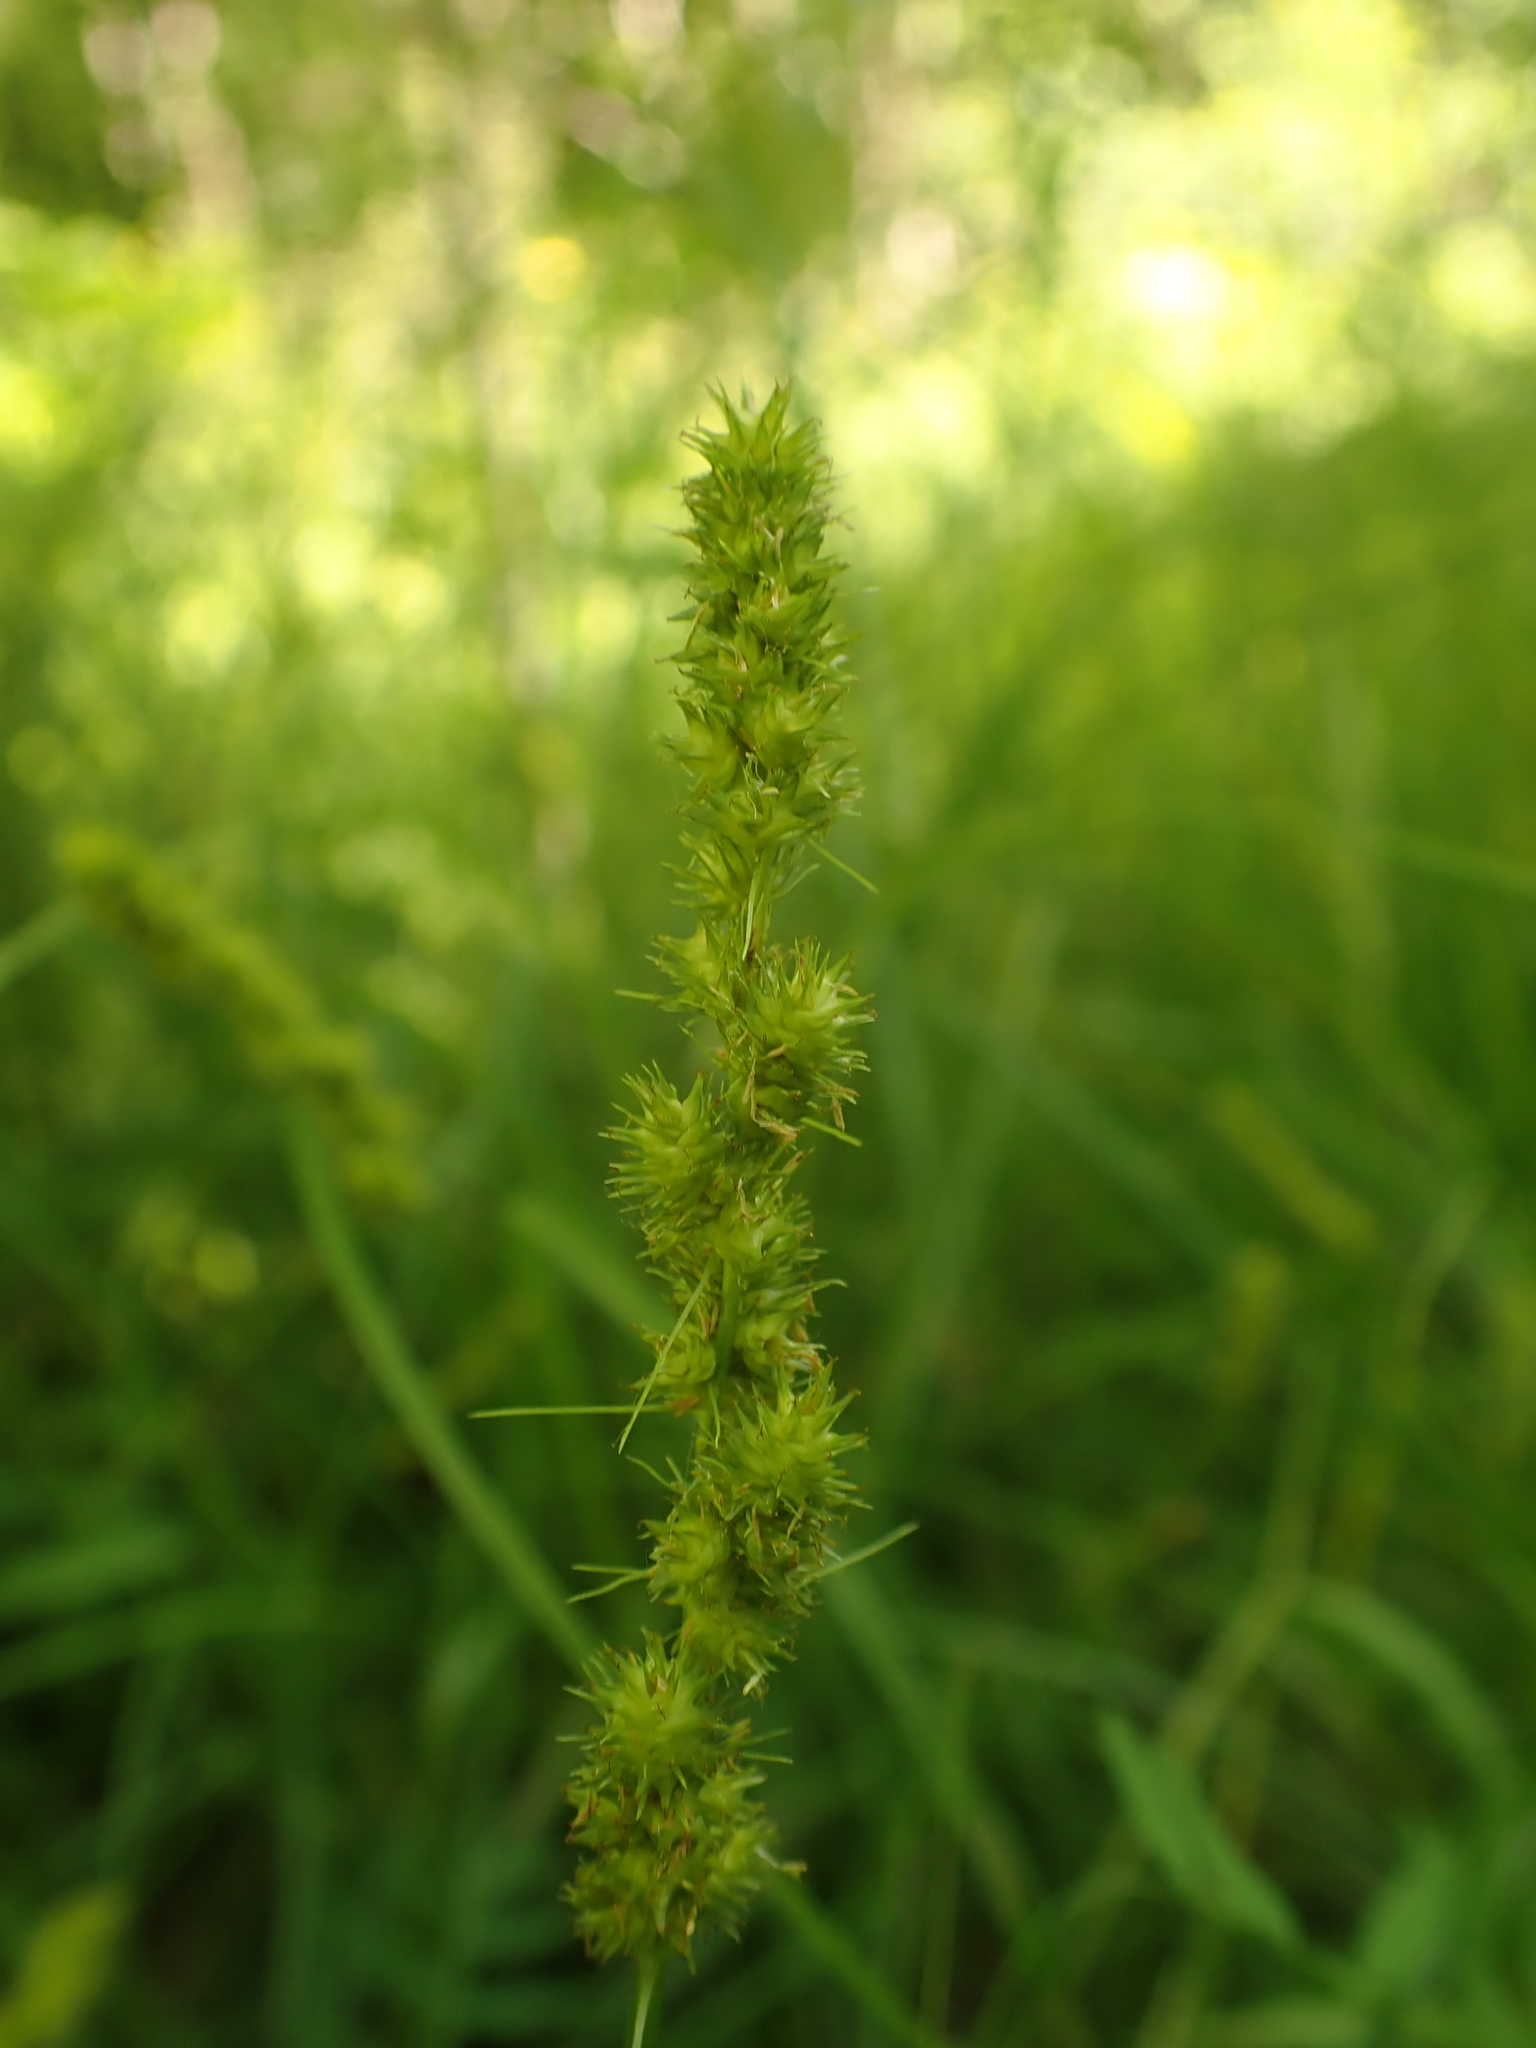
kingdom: Plantae
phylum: Tracheophyta
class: Liliopsida
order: Poales
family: Cyperaceae
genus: Carex
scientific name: Carex vulpinoidea
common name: American fox-sedge
